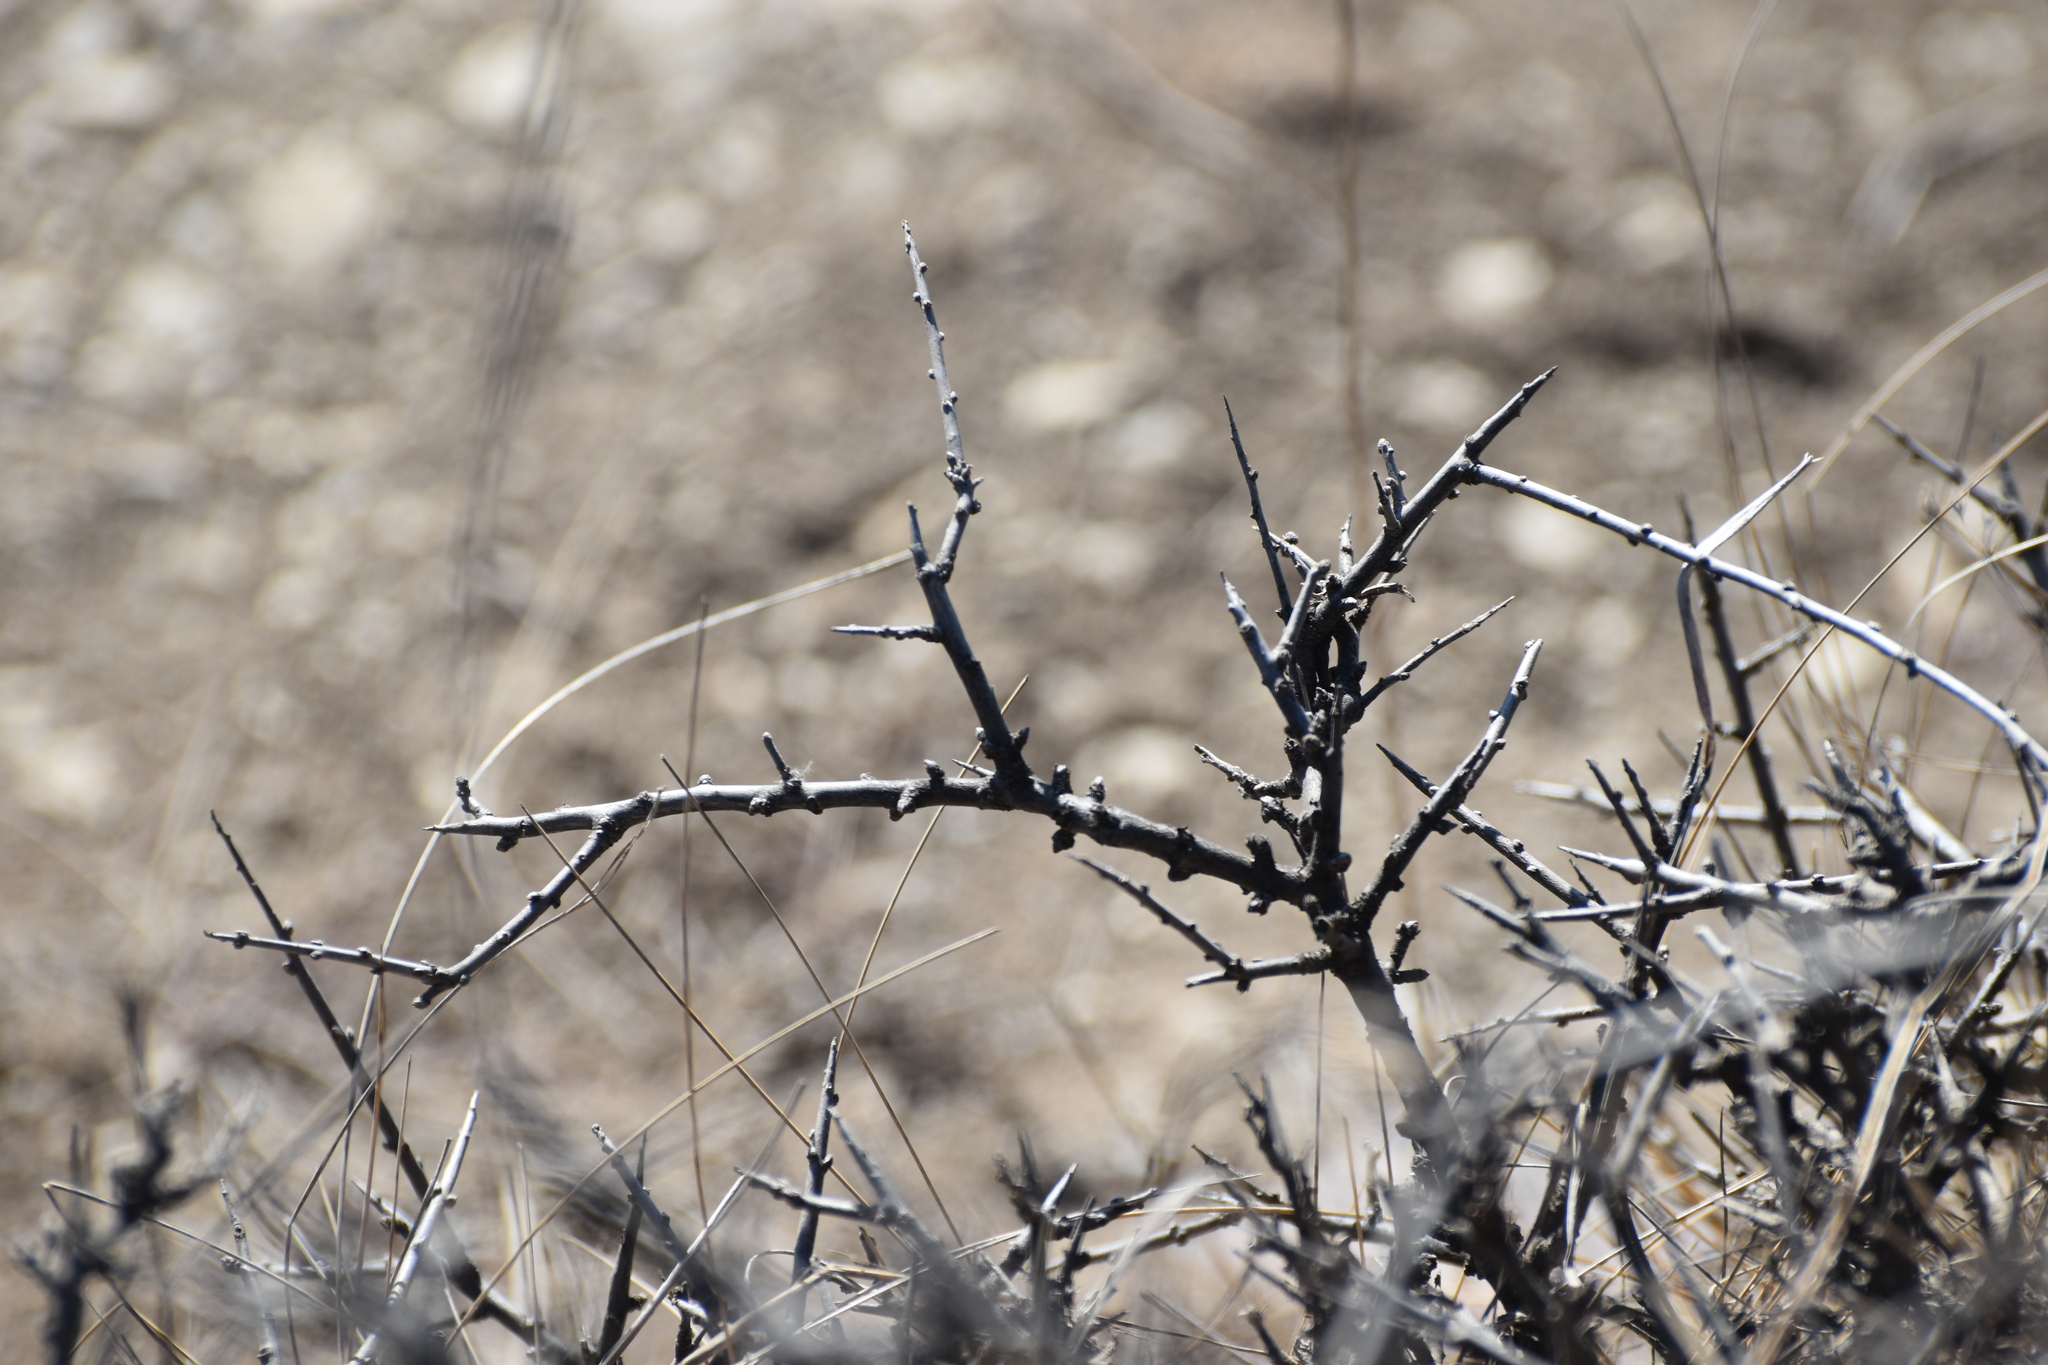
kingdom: Plantae
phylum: Tracheophyta
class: Magnoliopsida
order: Rosales
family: Rosaceae
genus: Prunus
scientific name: Prunus spinosa
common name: Blackthorn
